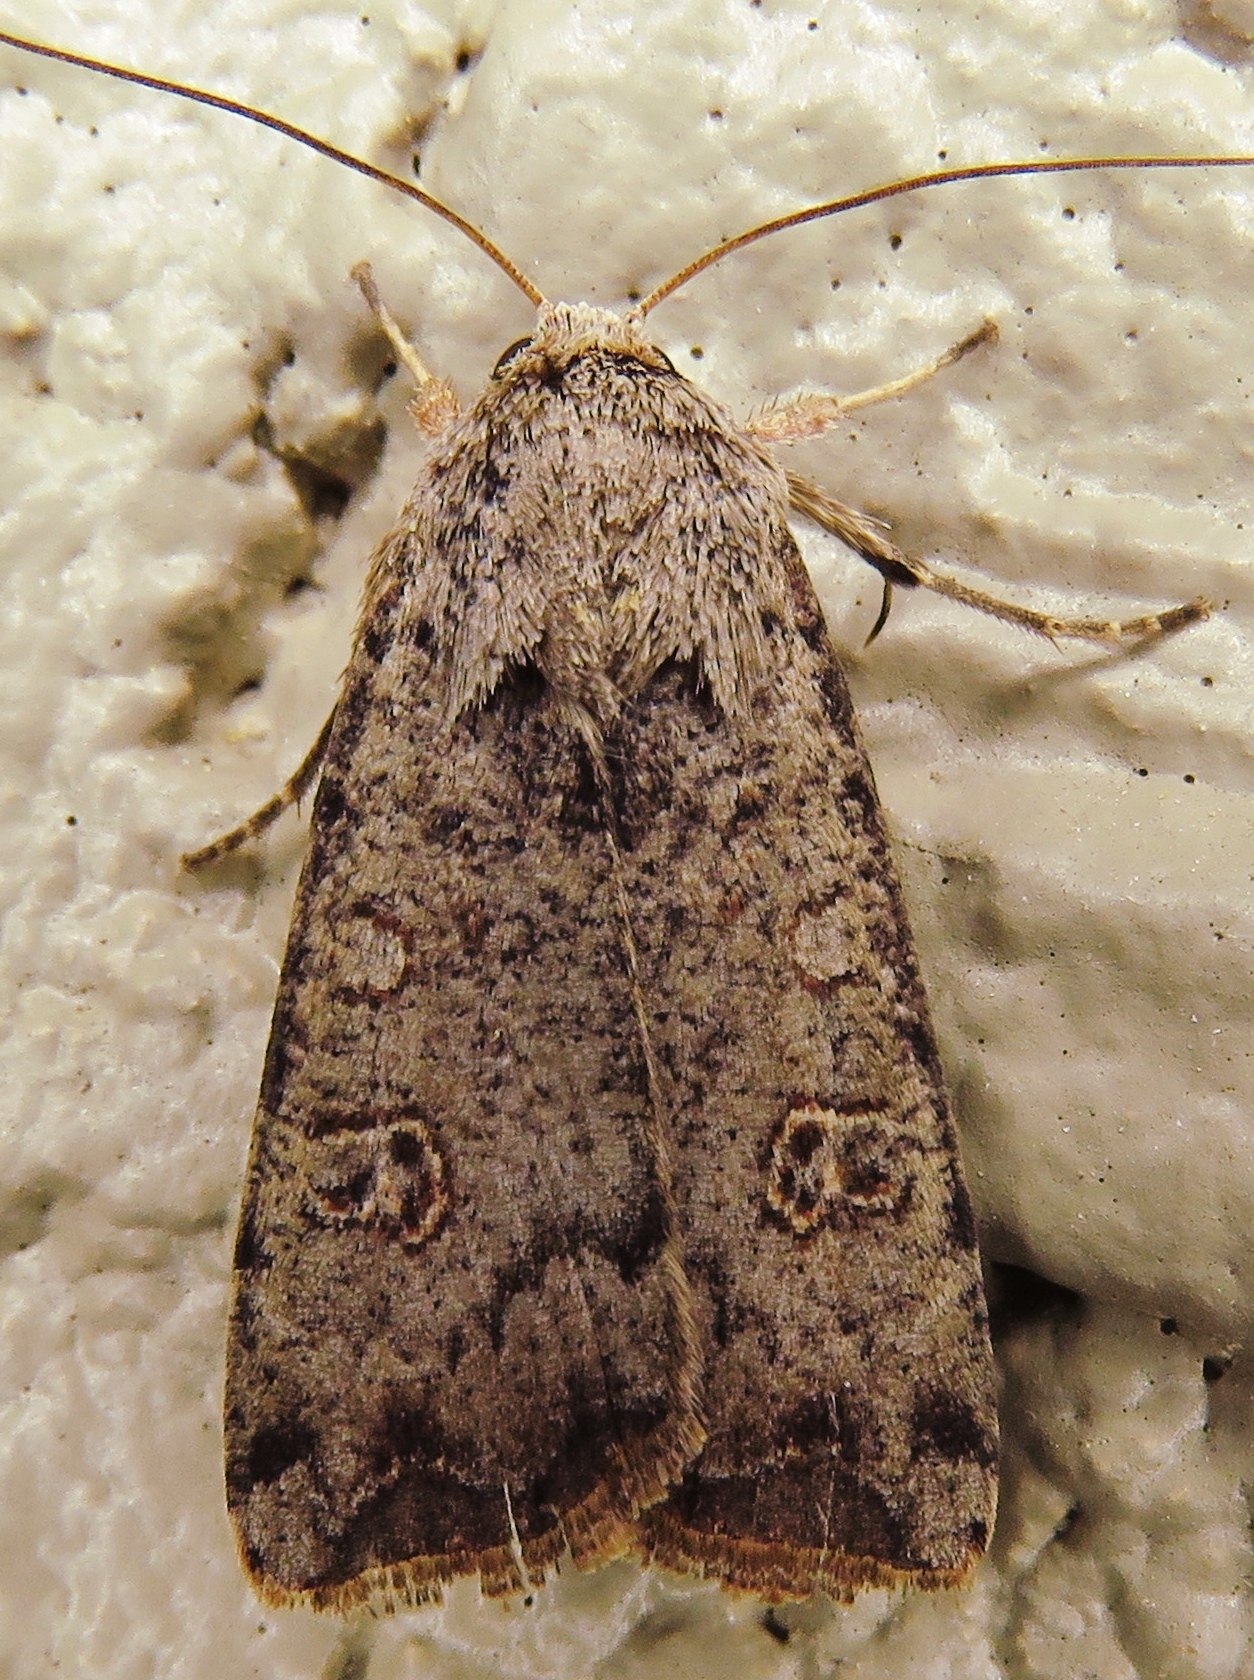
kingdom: Animalia
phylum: Arthropoda
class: Insecta
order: Lepidoptera
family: Noctuidae
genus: Anicla
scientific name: Anicla infecta
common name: Green cutworm
